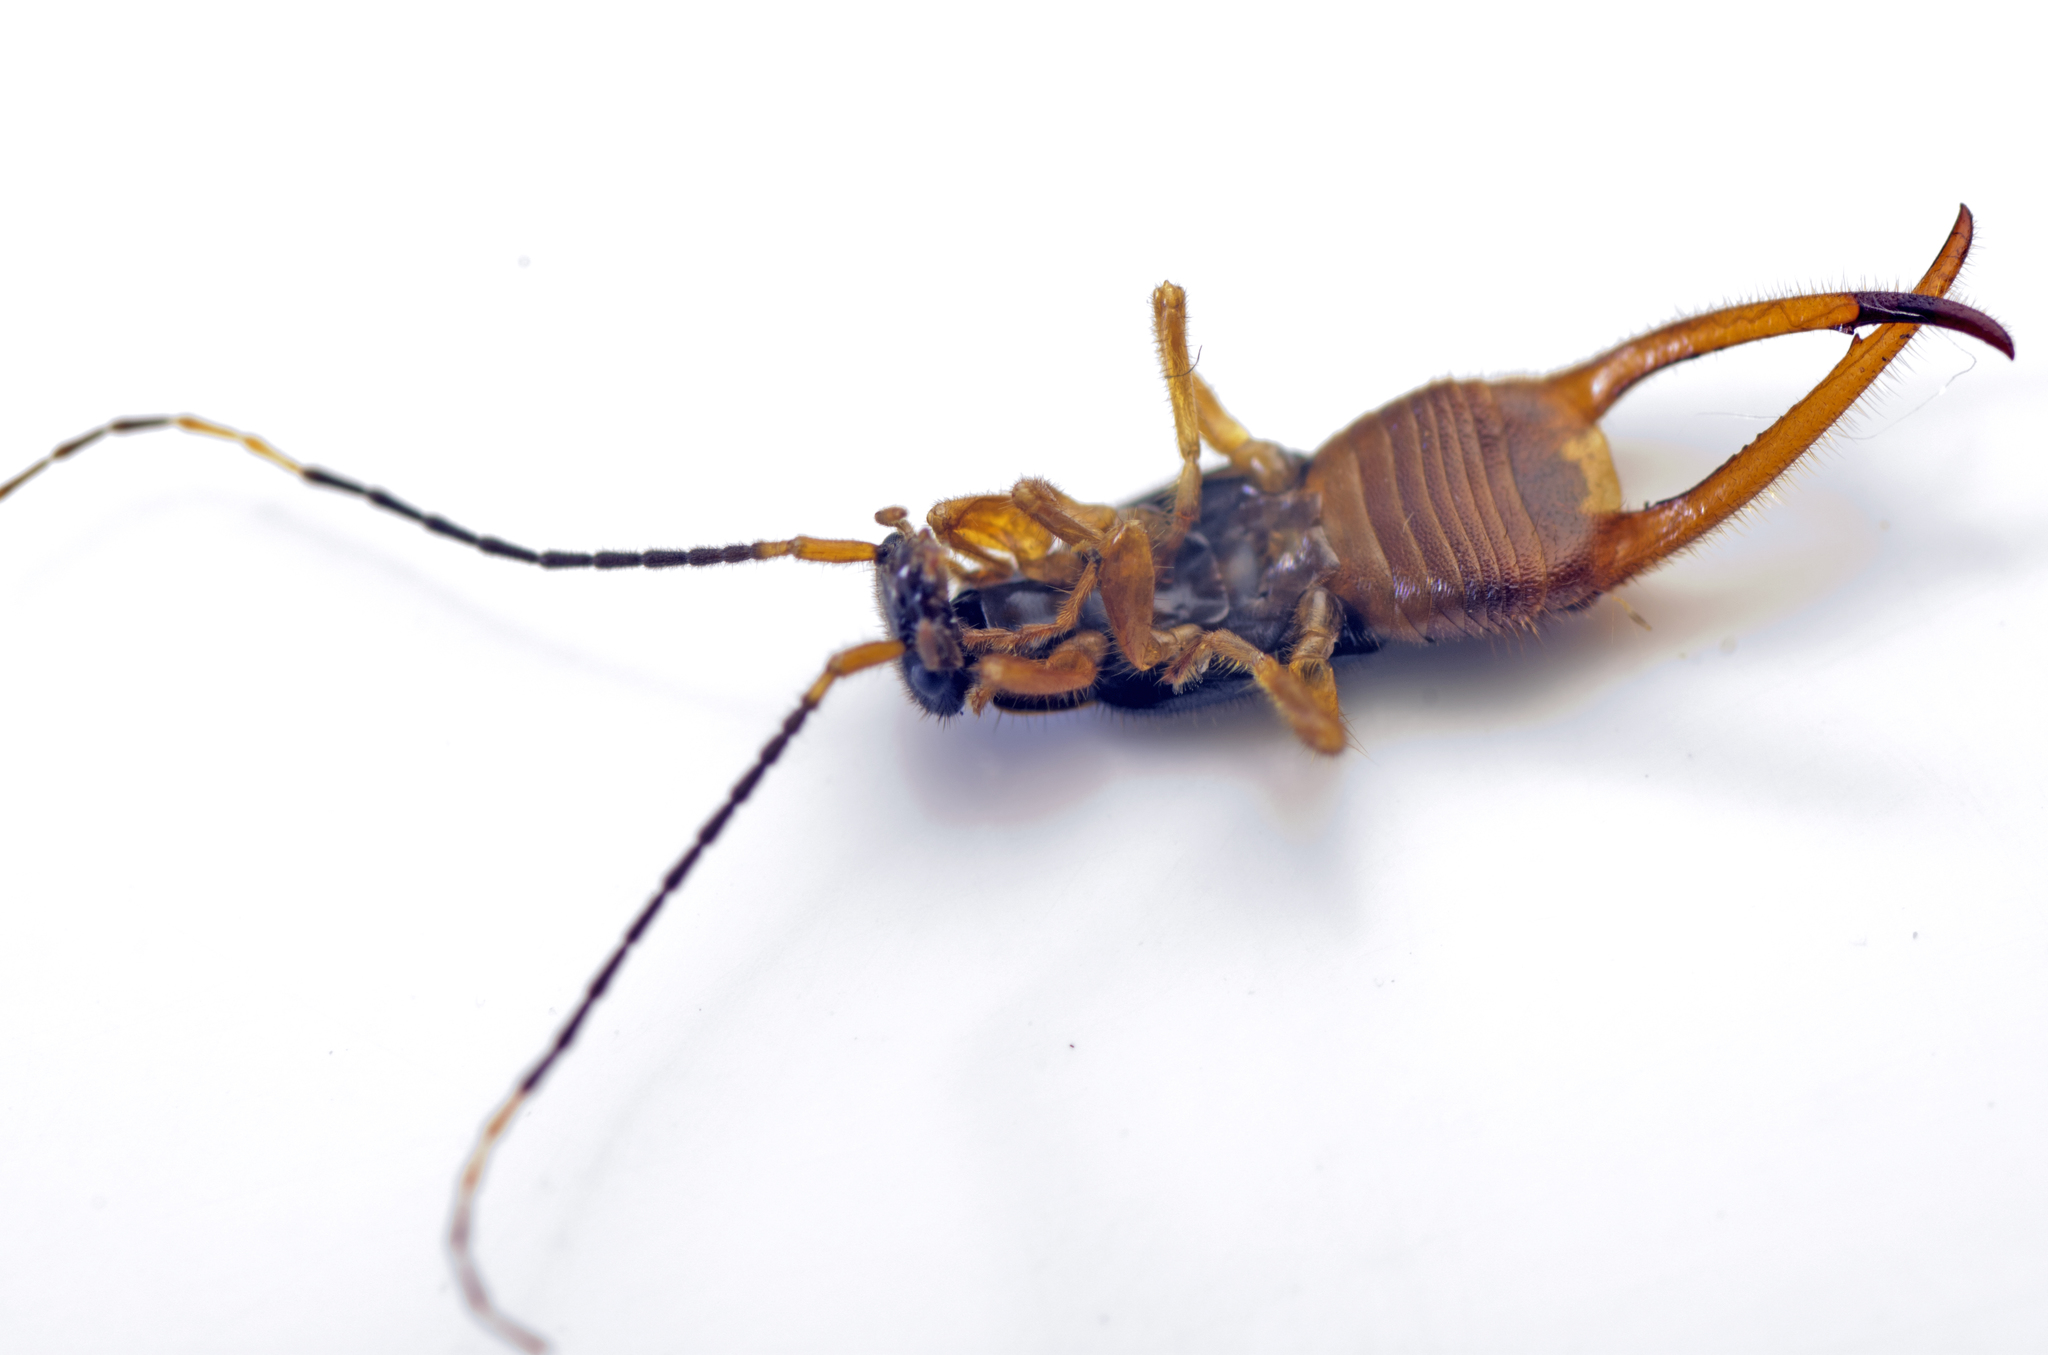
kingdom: Animalia
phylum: Arthropoda
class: Insecta
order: Dermaptera
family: Chelisochidae
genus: Hamaxas
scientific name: Hamaxas nigrorufus
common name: Earwig
